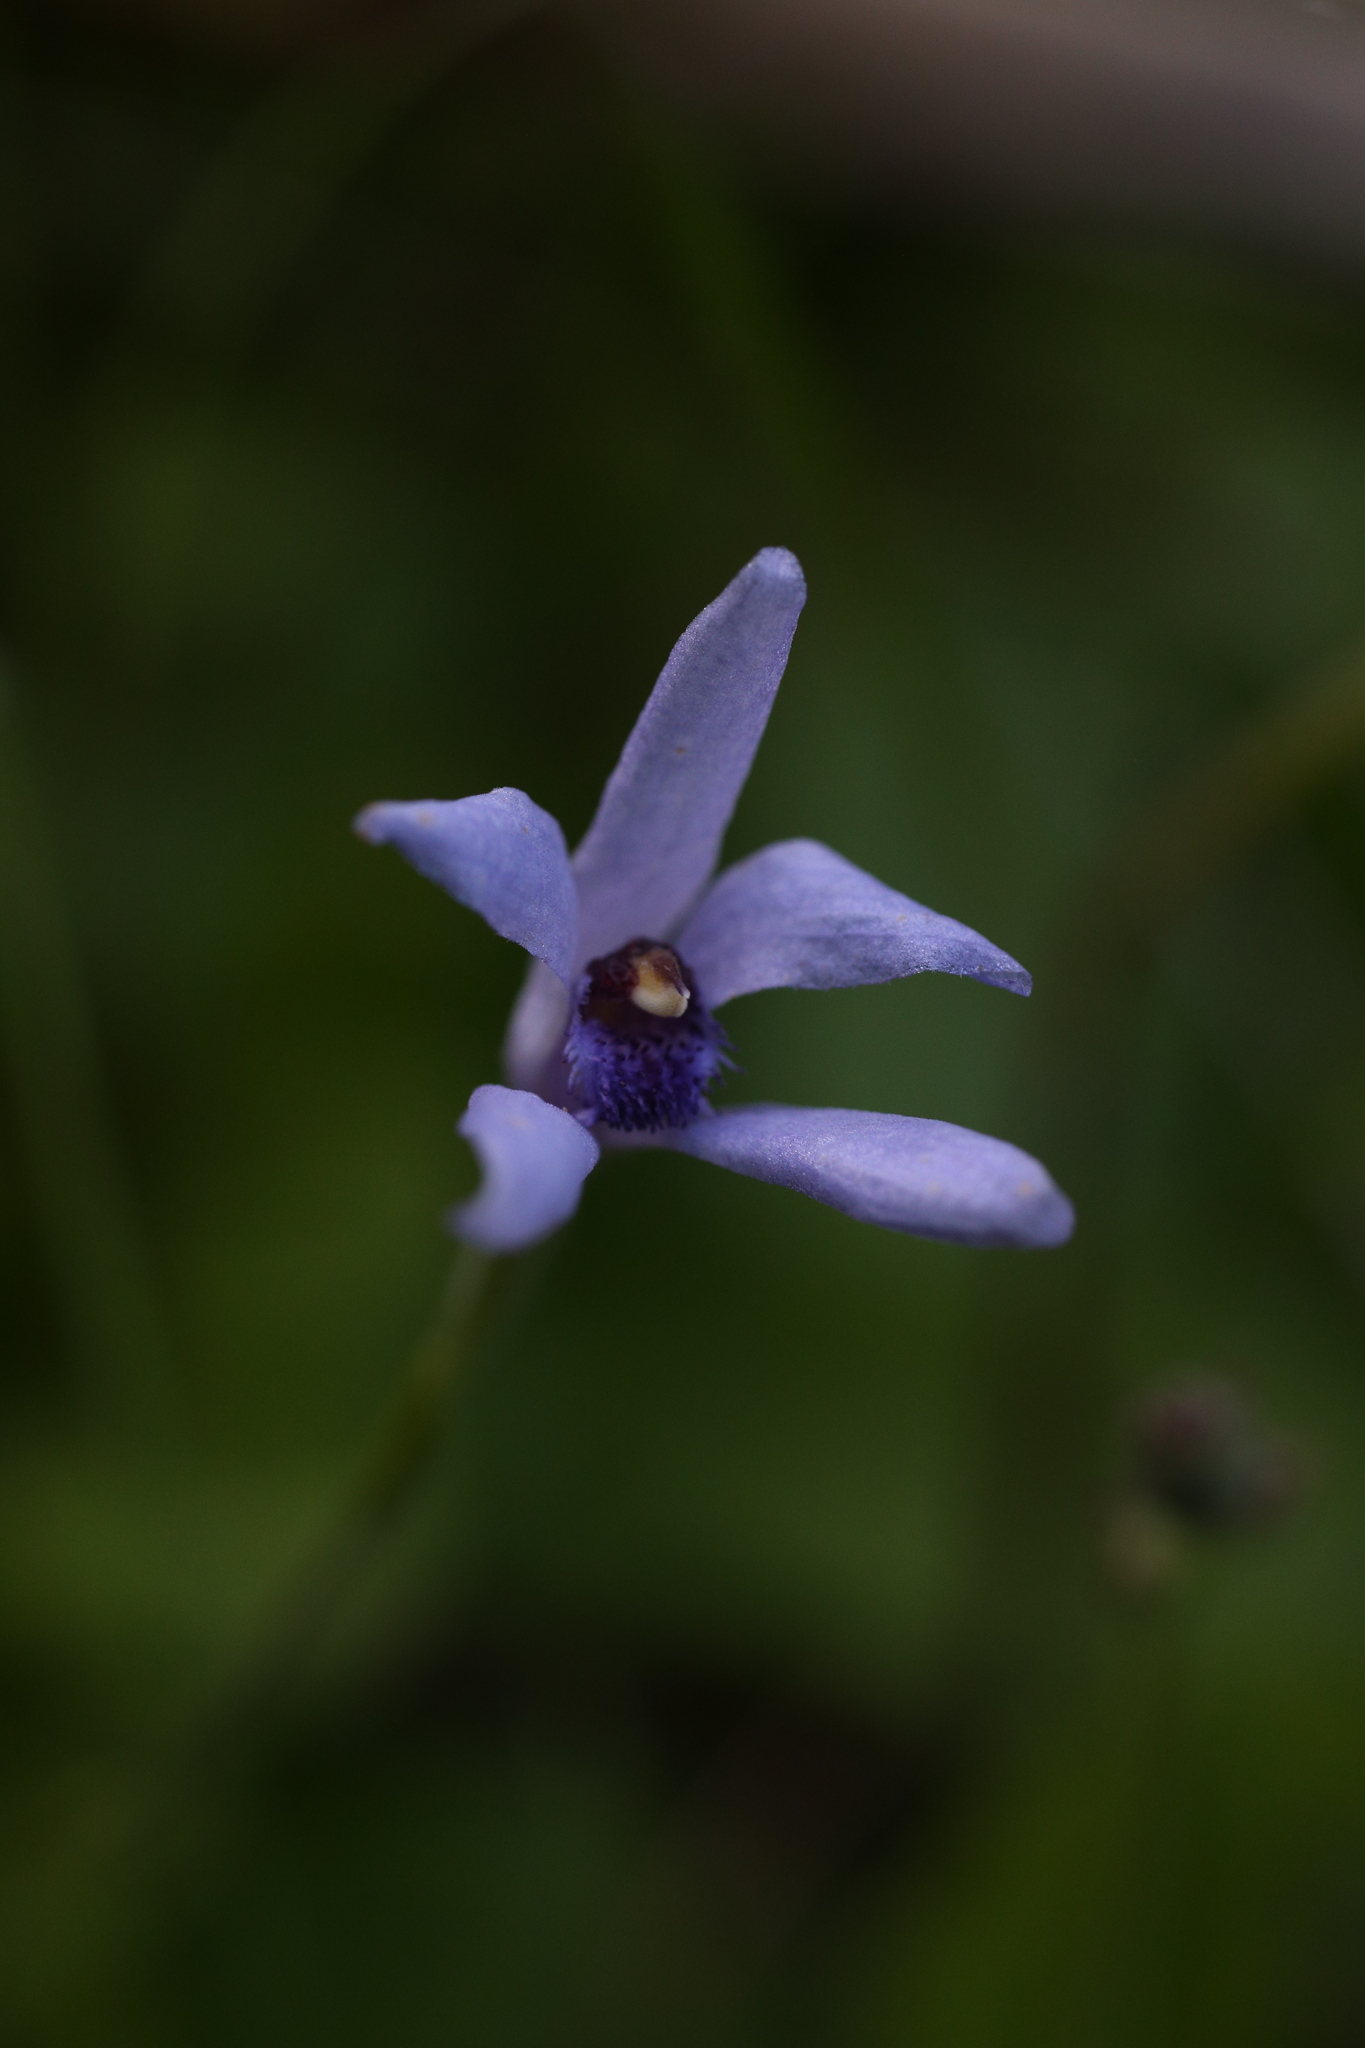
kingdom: Plantae
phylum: Tracheophyta
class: Liliopsida
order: Asparagales
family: Orchidaceae
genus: Pheladenia
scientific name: Pheladenia deformis
